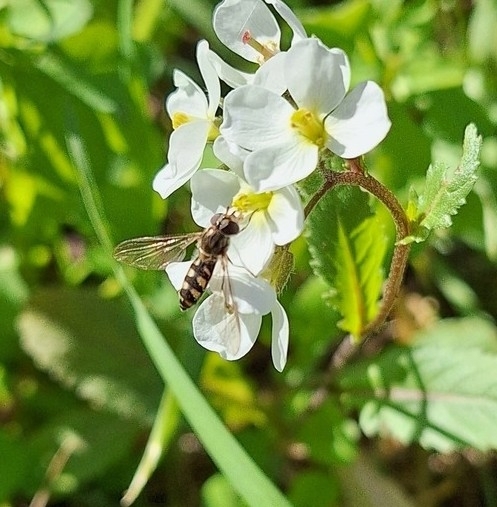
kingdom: Animalia
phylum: Arthropoda
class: Insecta
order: Diptera
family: Syrphidae
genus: Meliscaeva
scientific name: Meliscaeva auricollis
